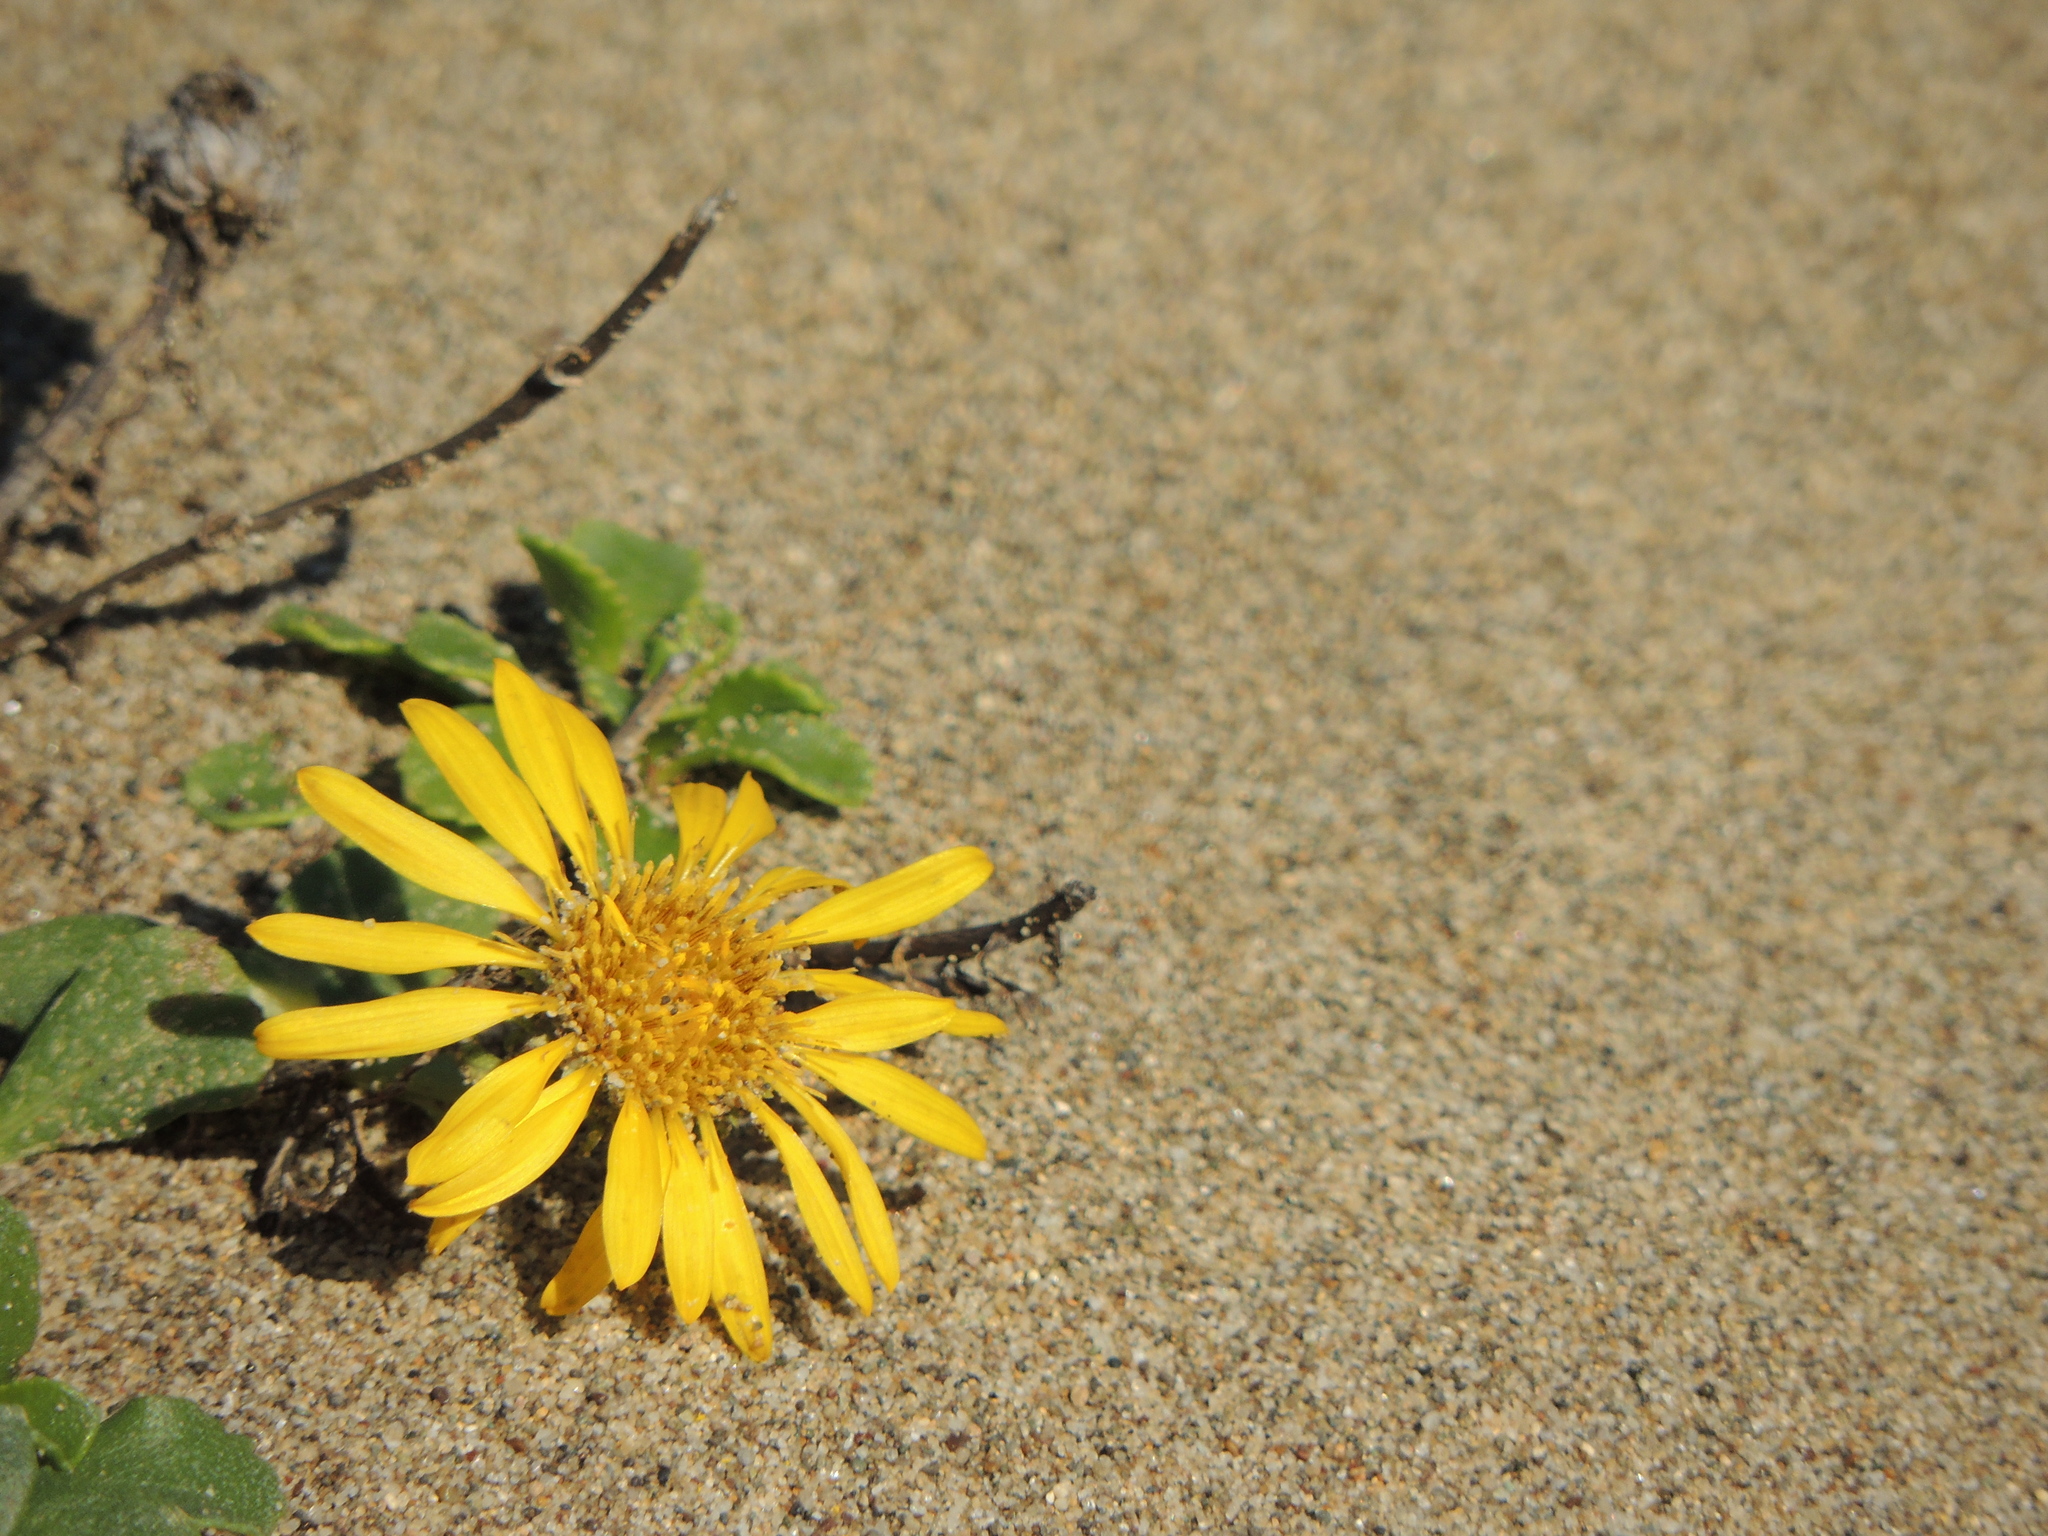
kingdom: Plantae
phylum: Tracheophyta
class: Magnoliopsida
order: Asterales
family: Asteraceae
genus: Grindelia
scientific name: Grindelia hirsutula
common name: Hairy gumweed
